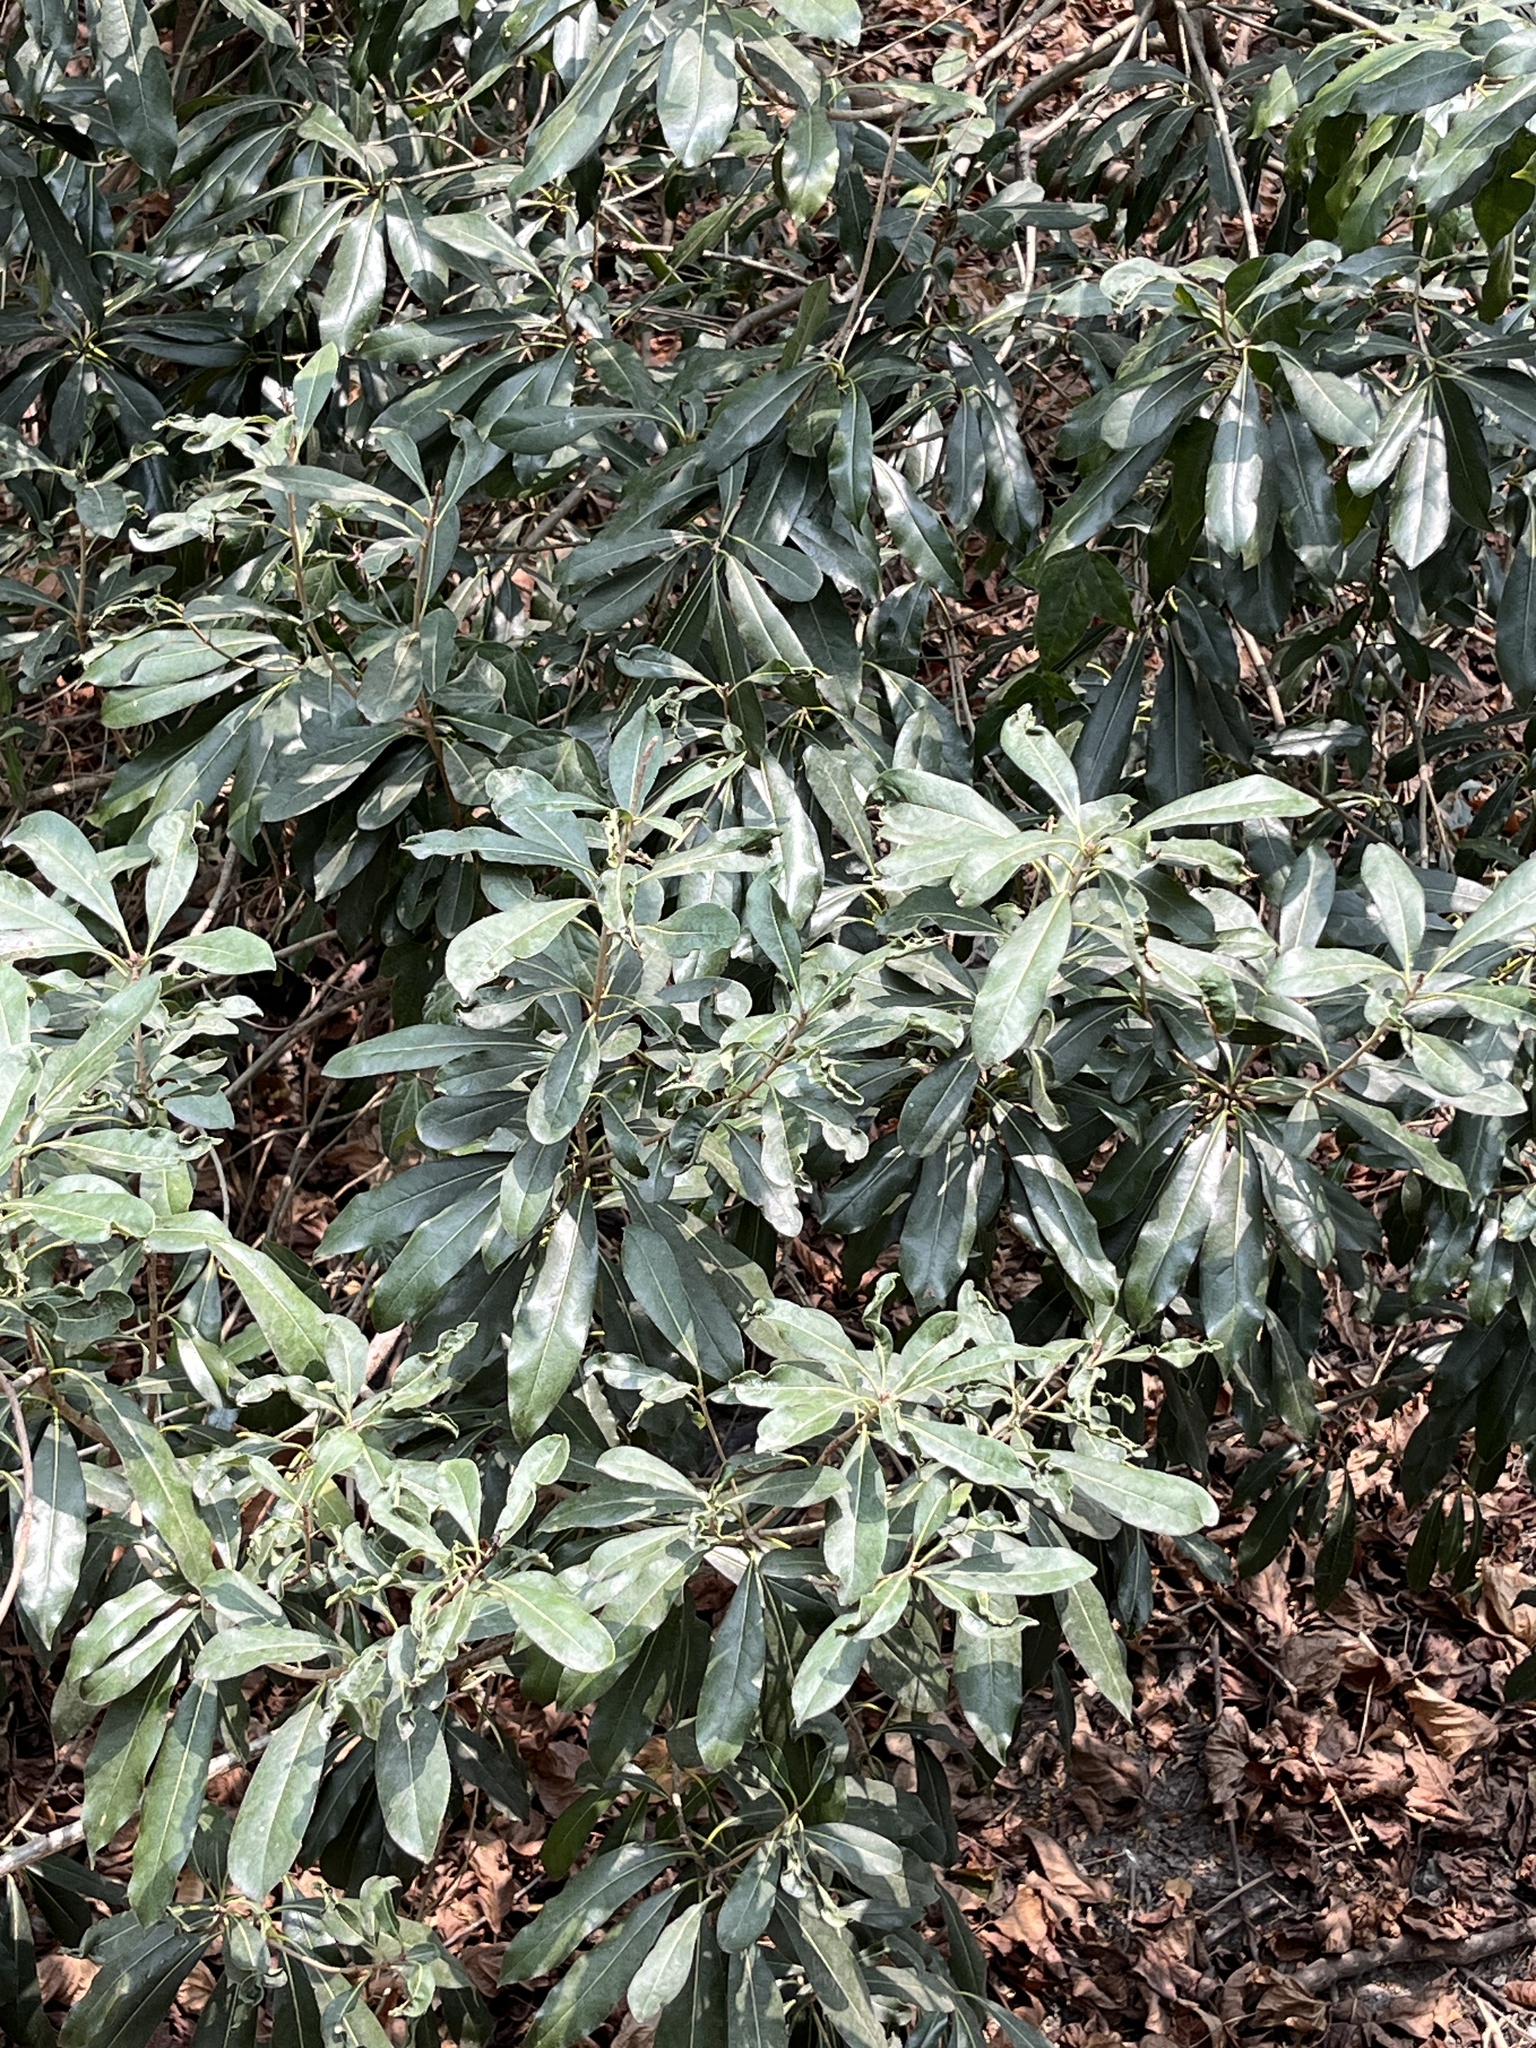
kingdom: Plantae
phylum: Tracheophyta
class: Magnoliopsida
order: Apiales
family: Pittosporaceae
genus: Pittosporum
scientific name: Pittosporum pentandrum
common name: Taiwanese cheesewood
